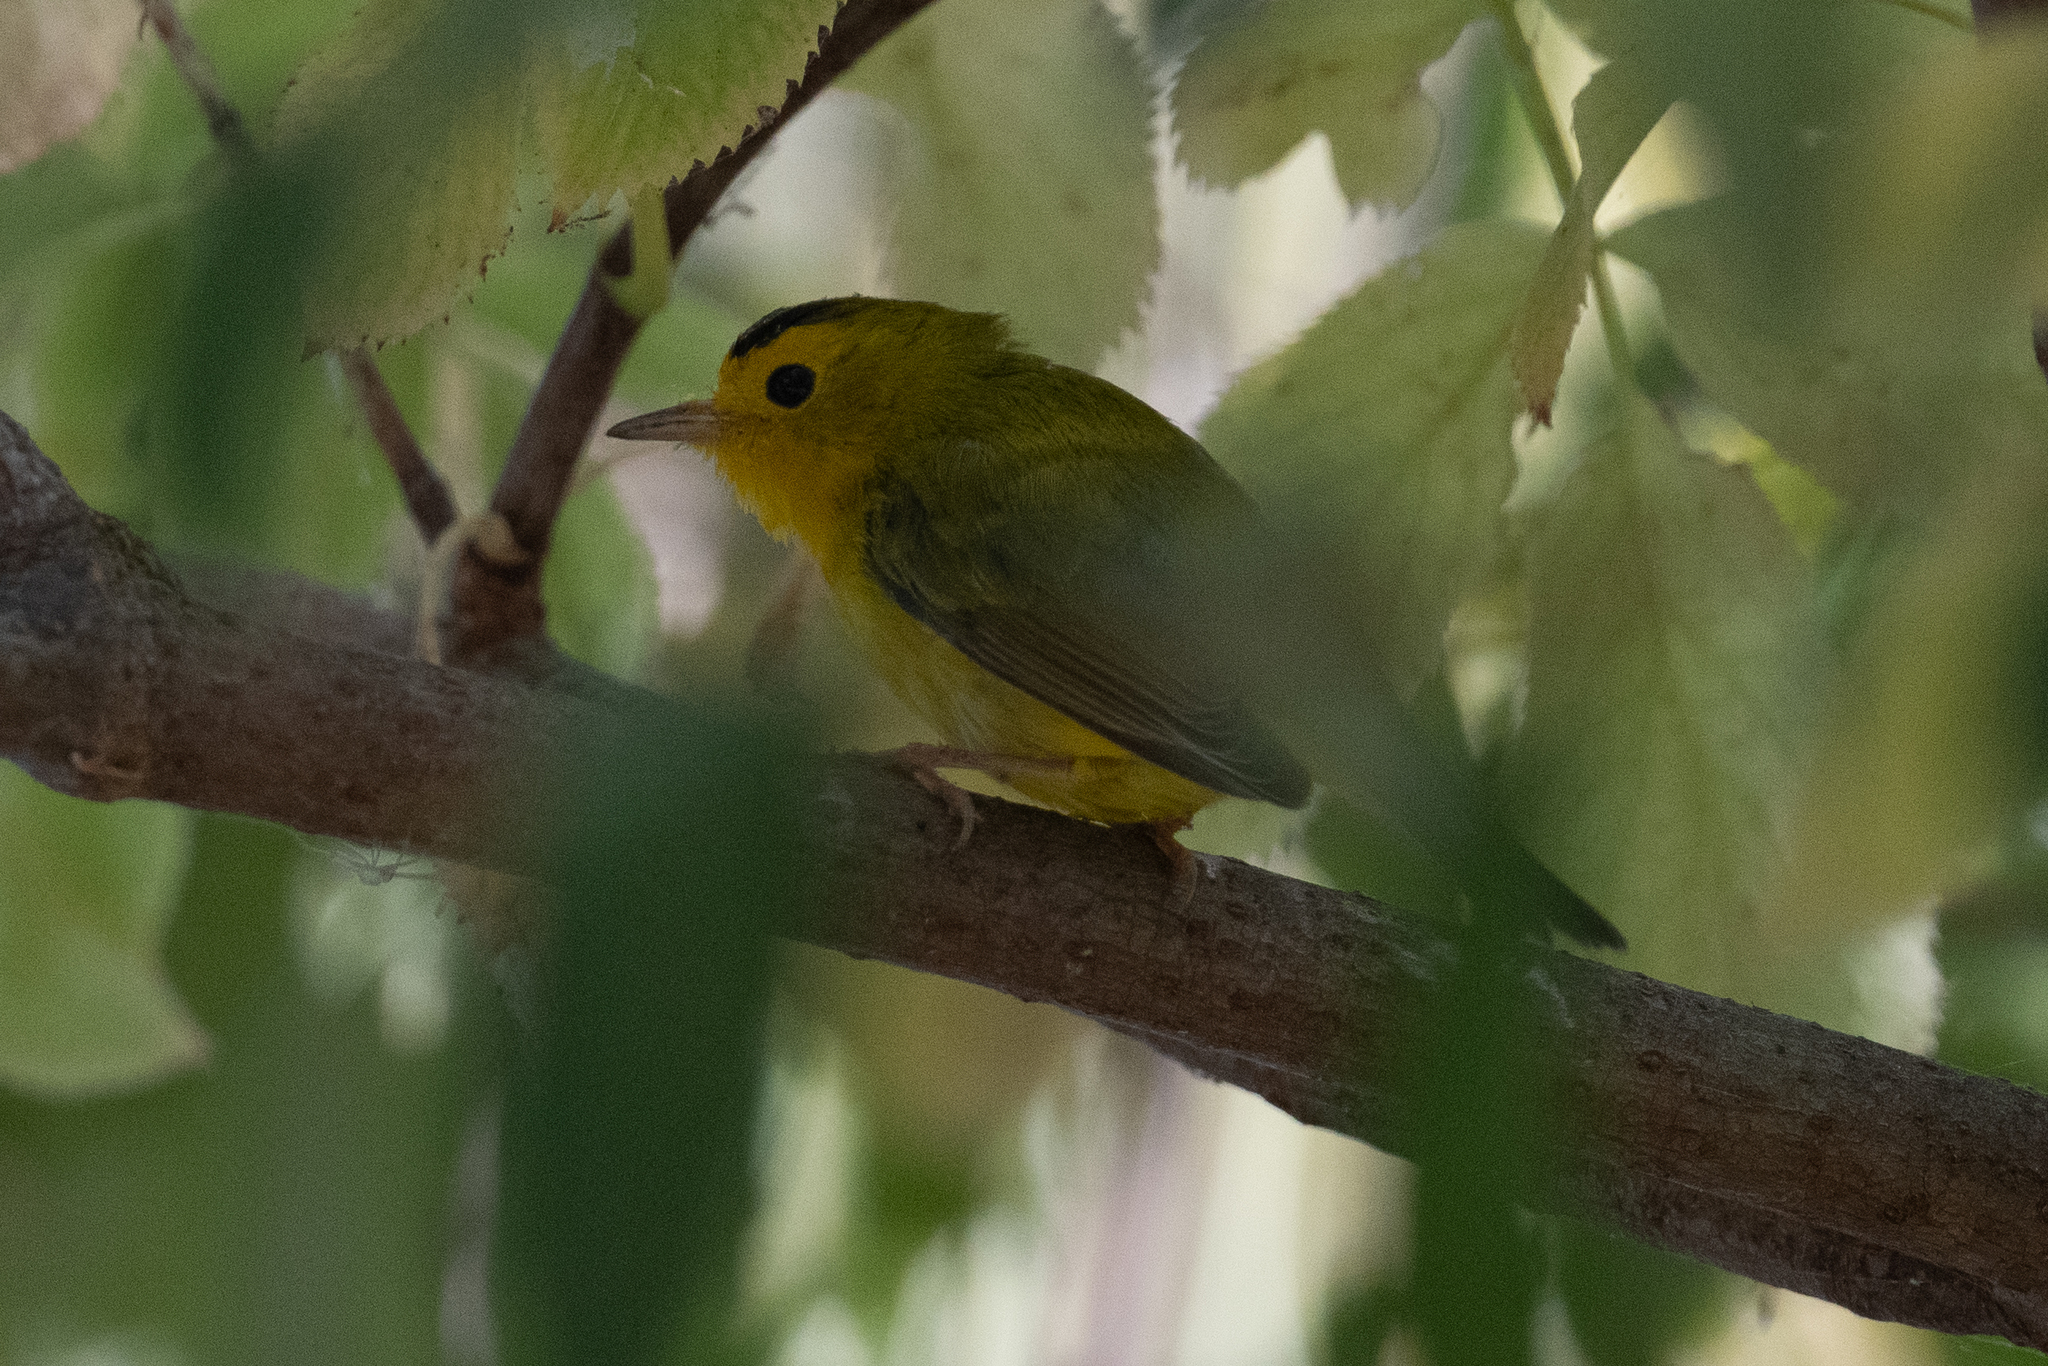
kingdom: Animalia
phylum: Chordata
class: Aves
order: Passeriformes
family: Parulidae
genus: Cardellina
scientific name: Cardellina pusilla
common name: Wilson's warbler
